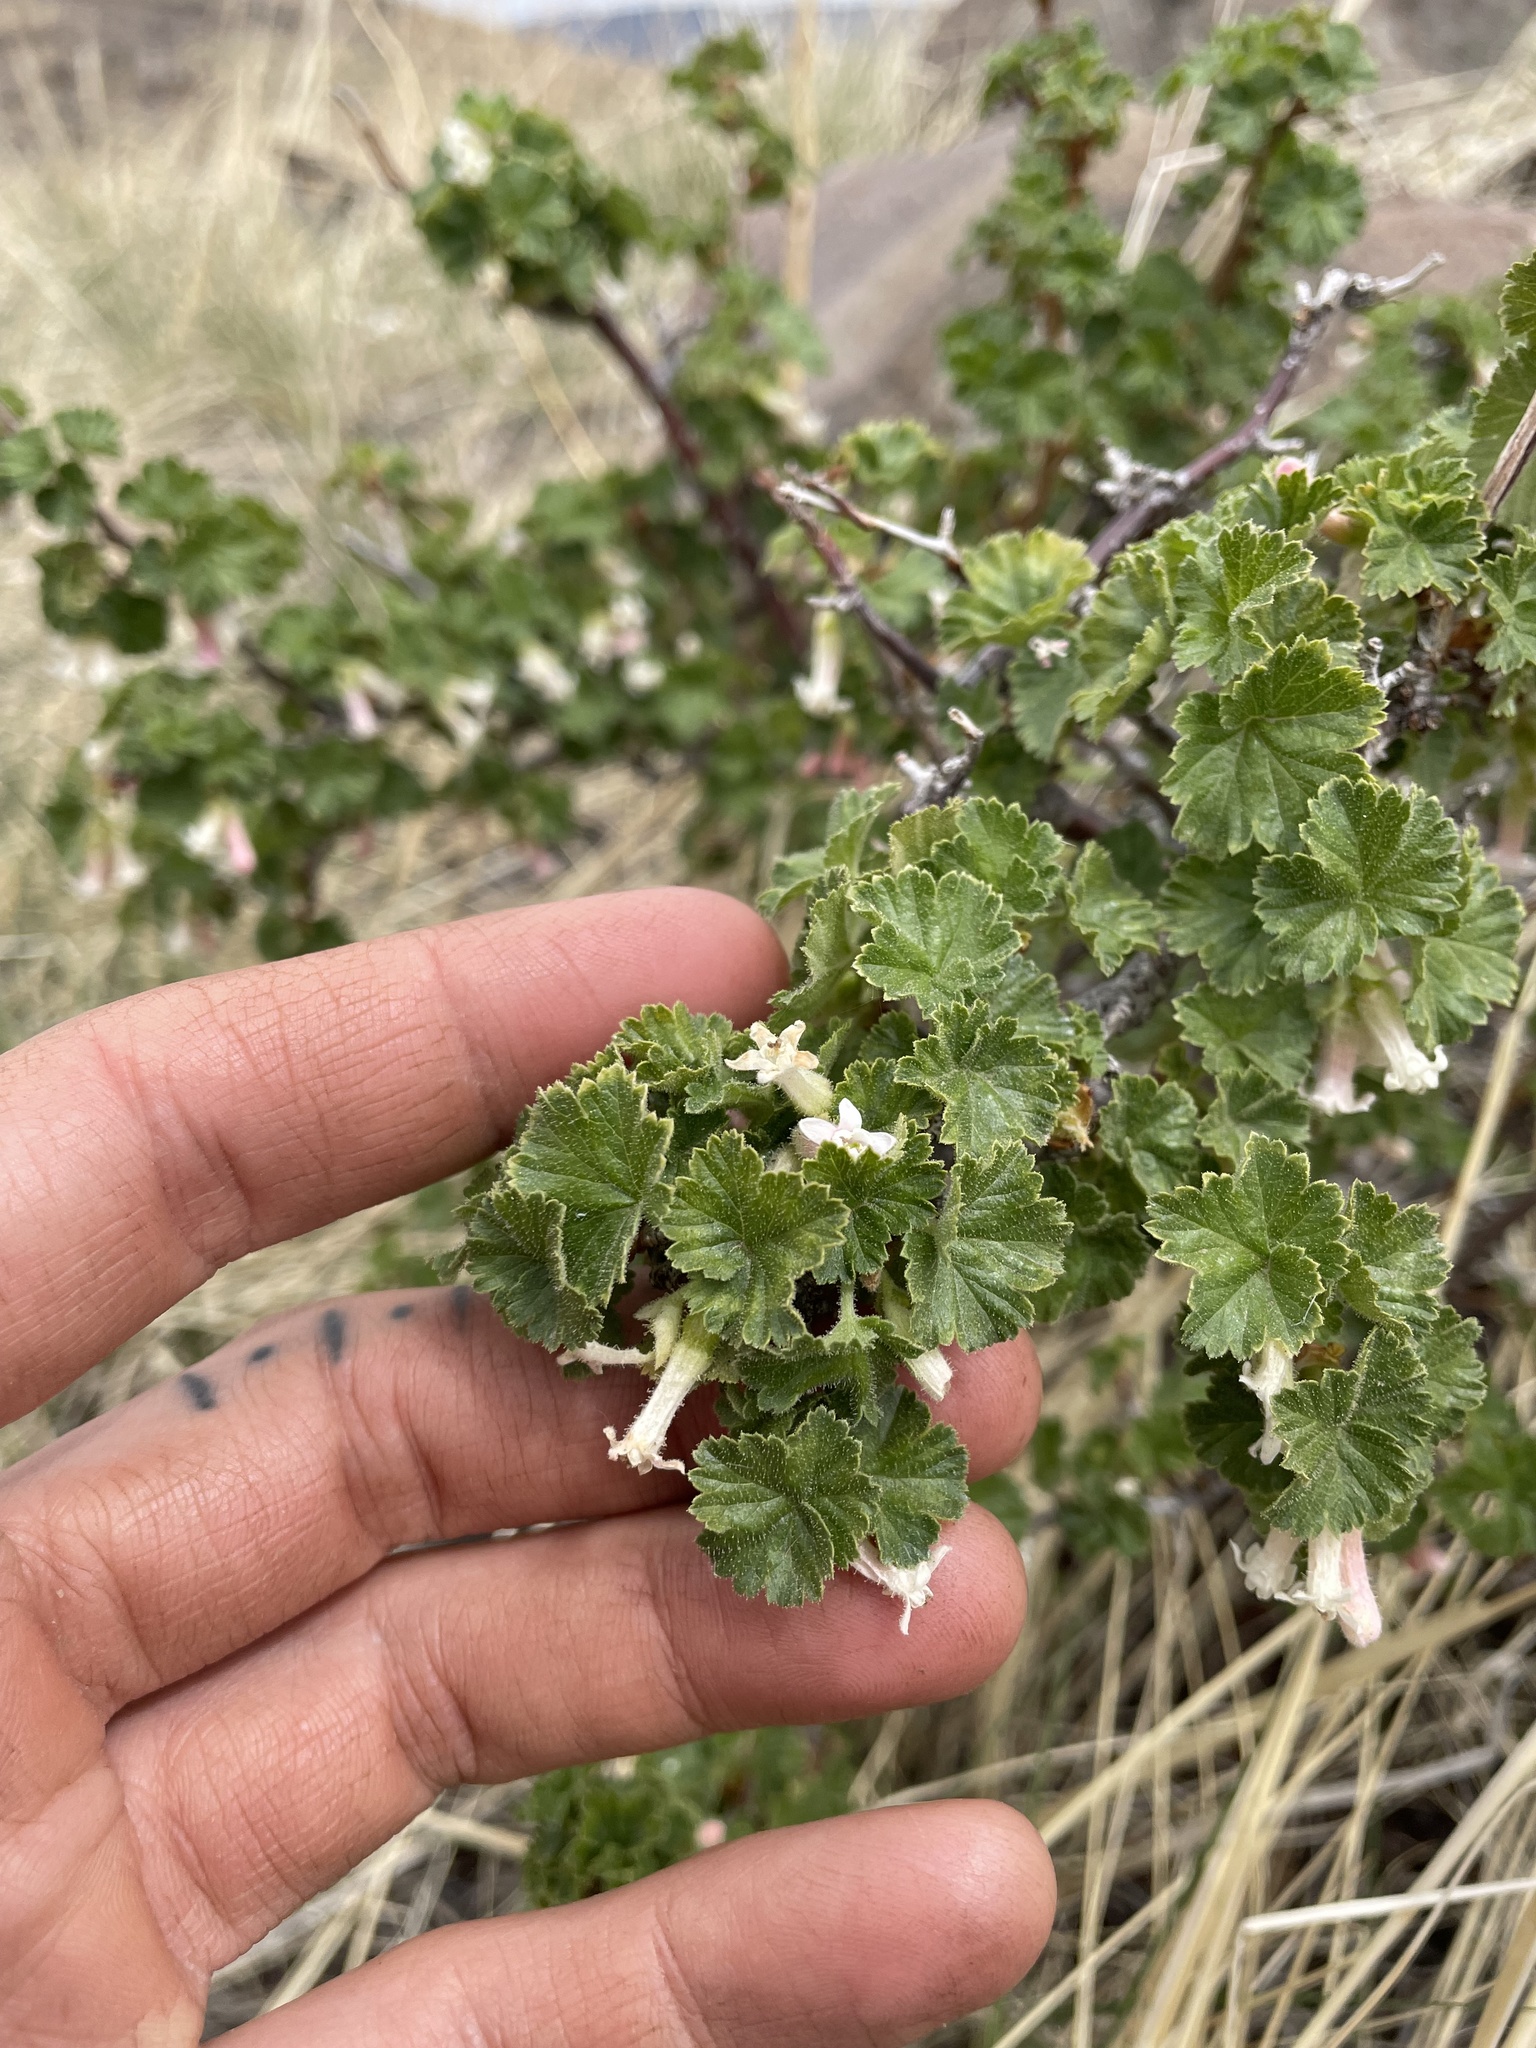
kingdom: Plantae
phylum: Tracheophyta
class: Magnoliopsida
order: Saxifragales
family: Grossulariaceae
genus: Ribes
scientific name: Ribes cereum
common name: Wax currant
